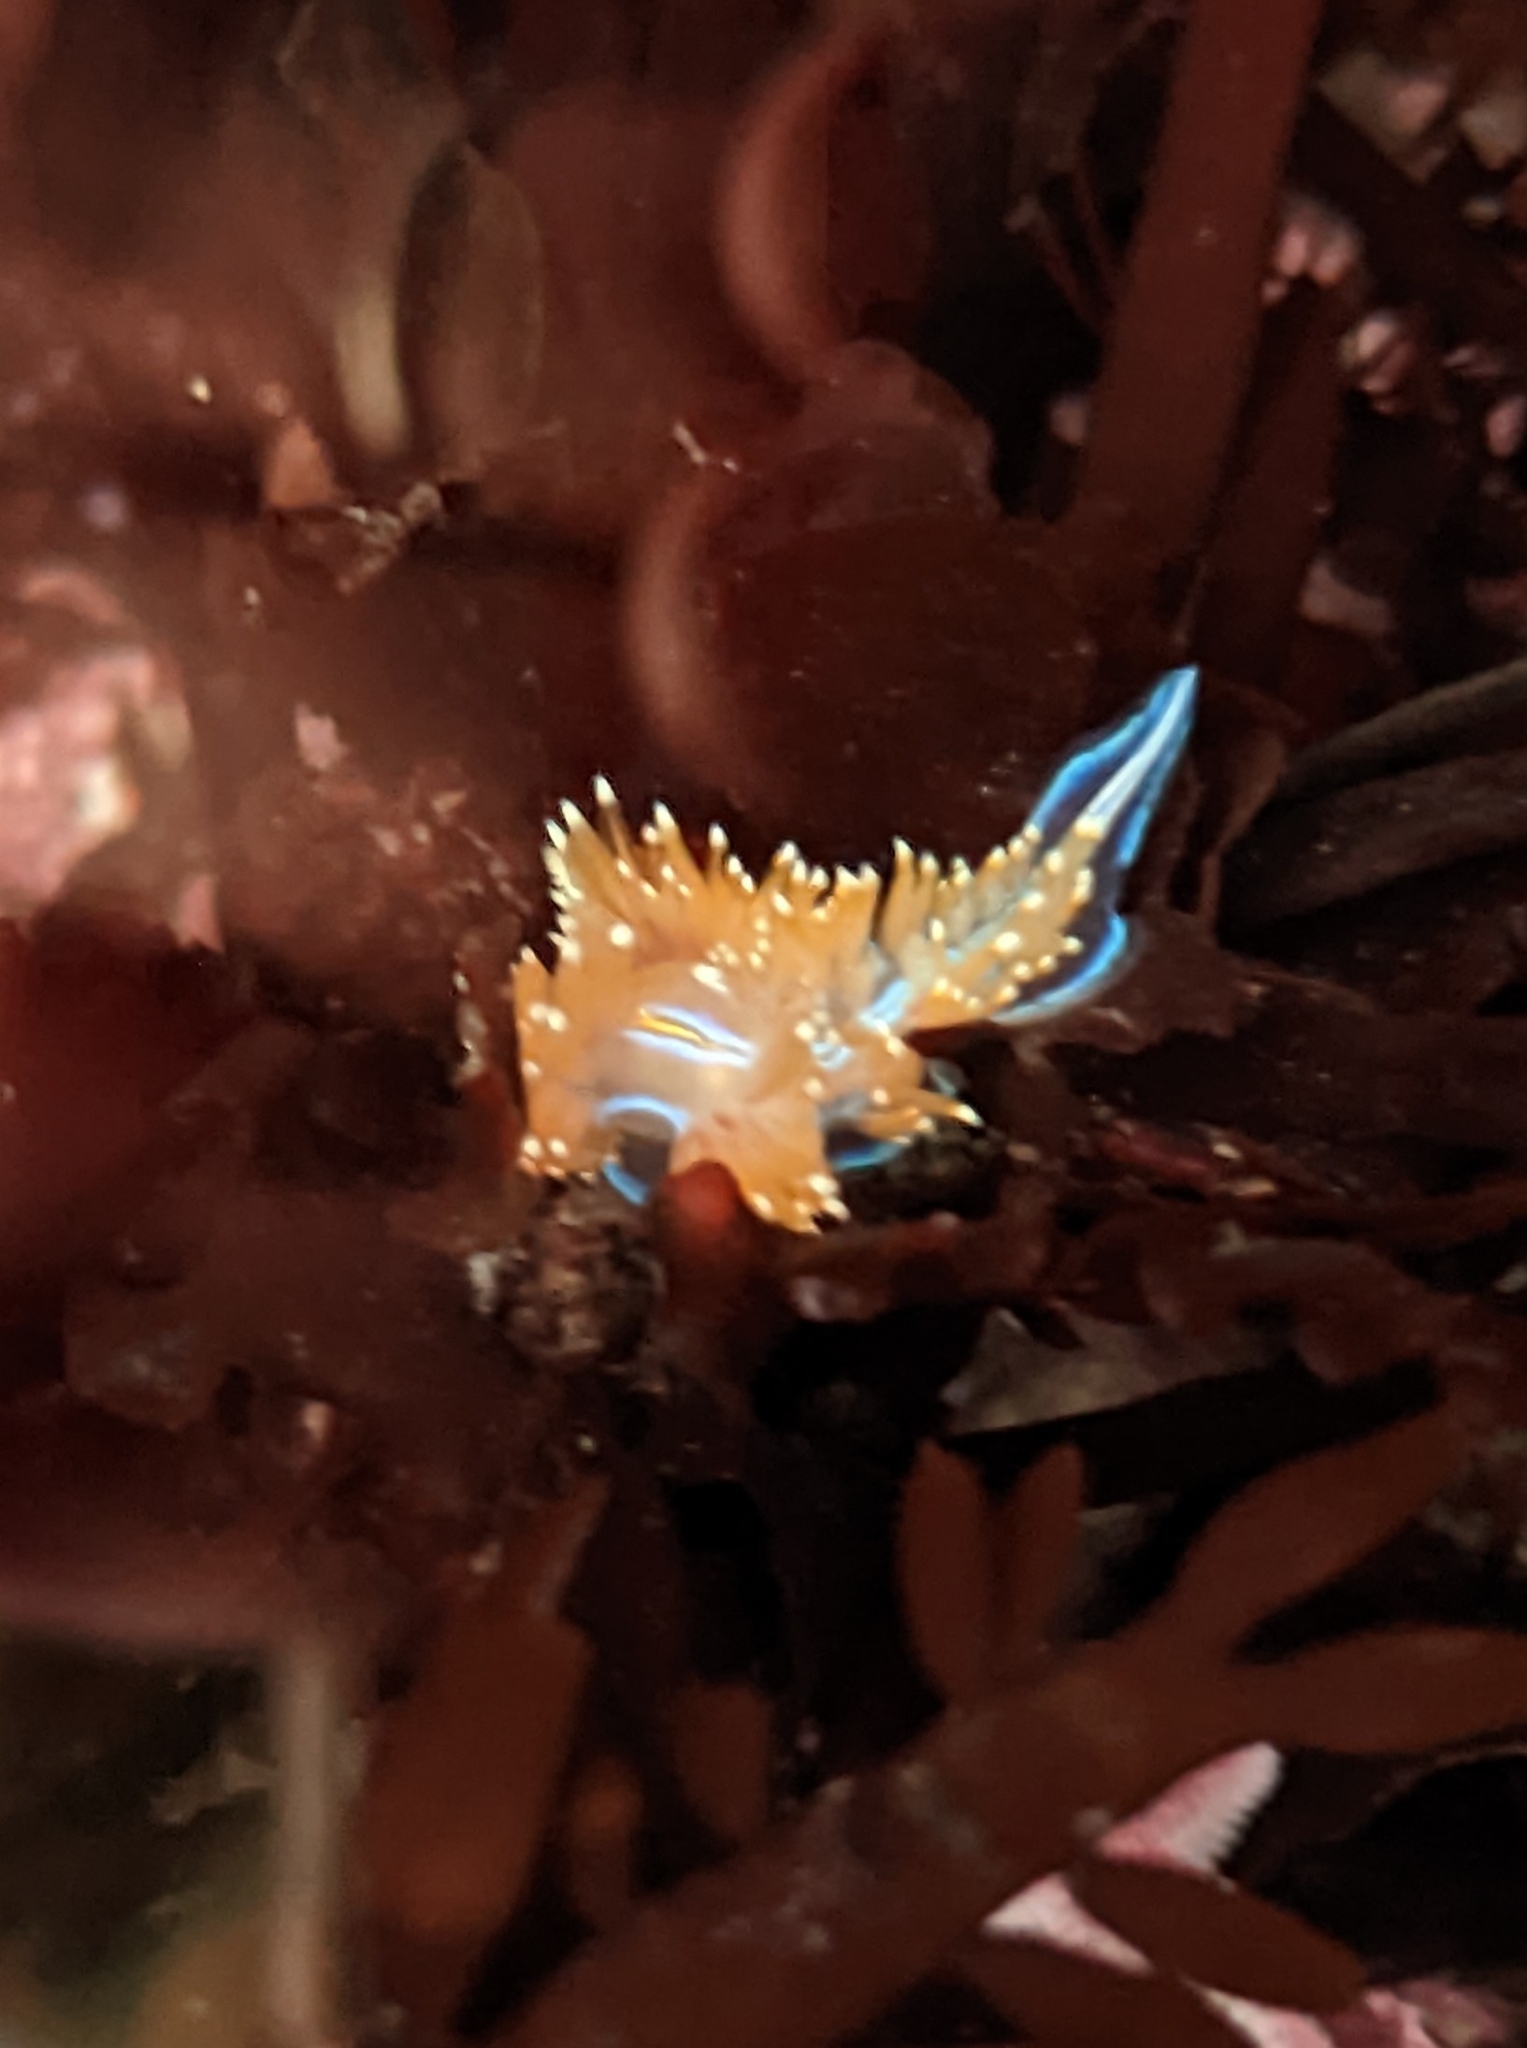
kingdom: Animalia
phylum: Mollusca
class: Gastropoda
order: Nudibranchia
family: Myrrhinidae
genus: Hermissenda
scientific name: Hermissenda opalescens
